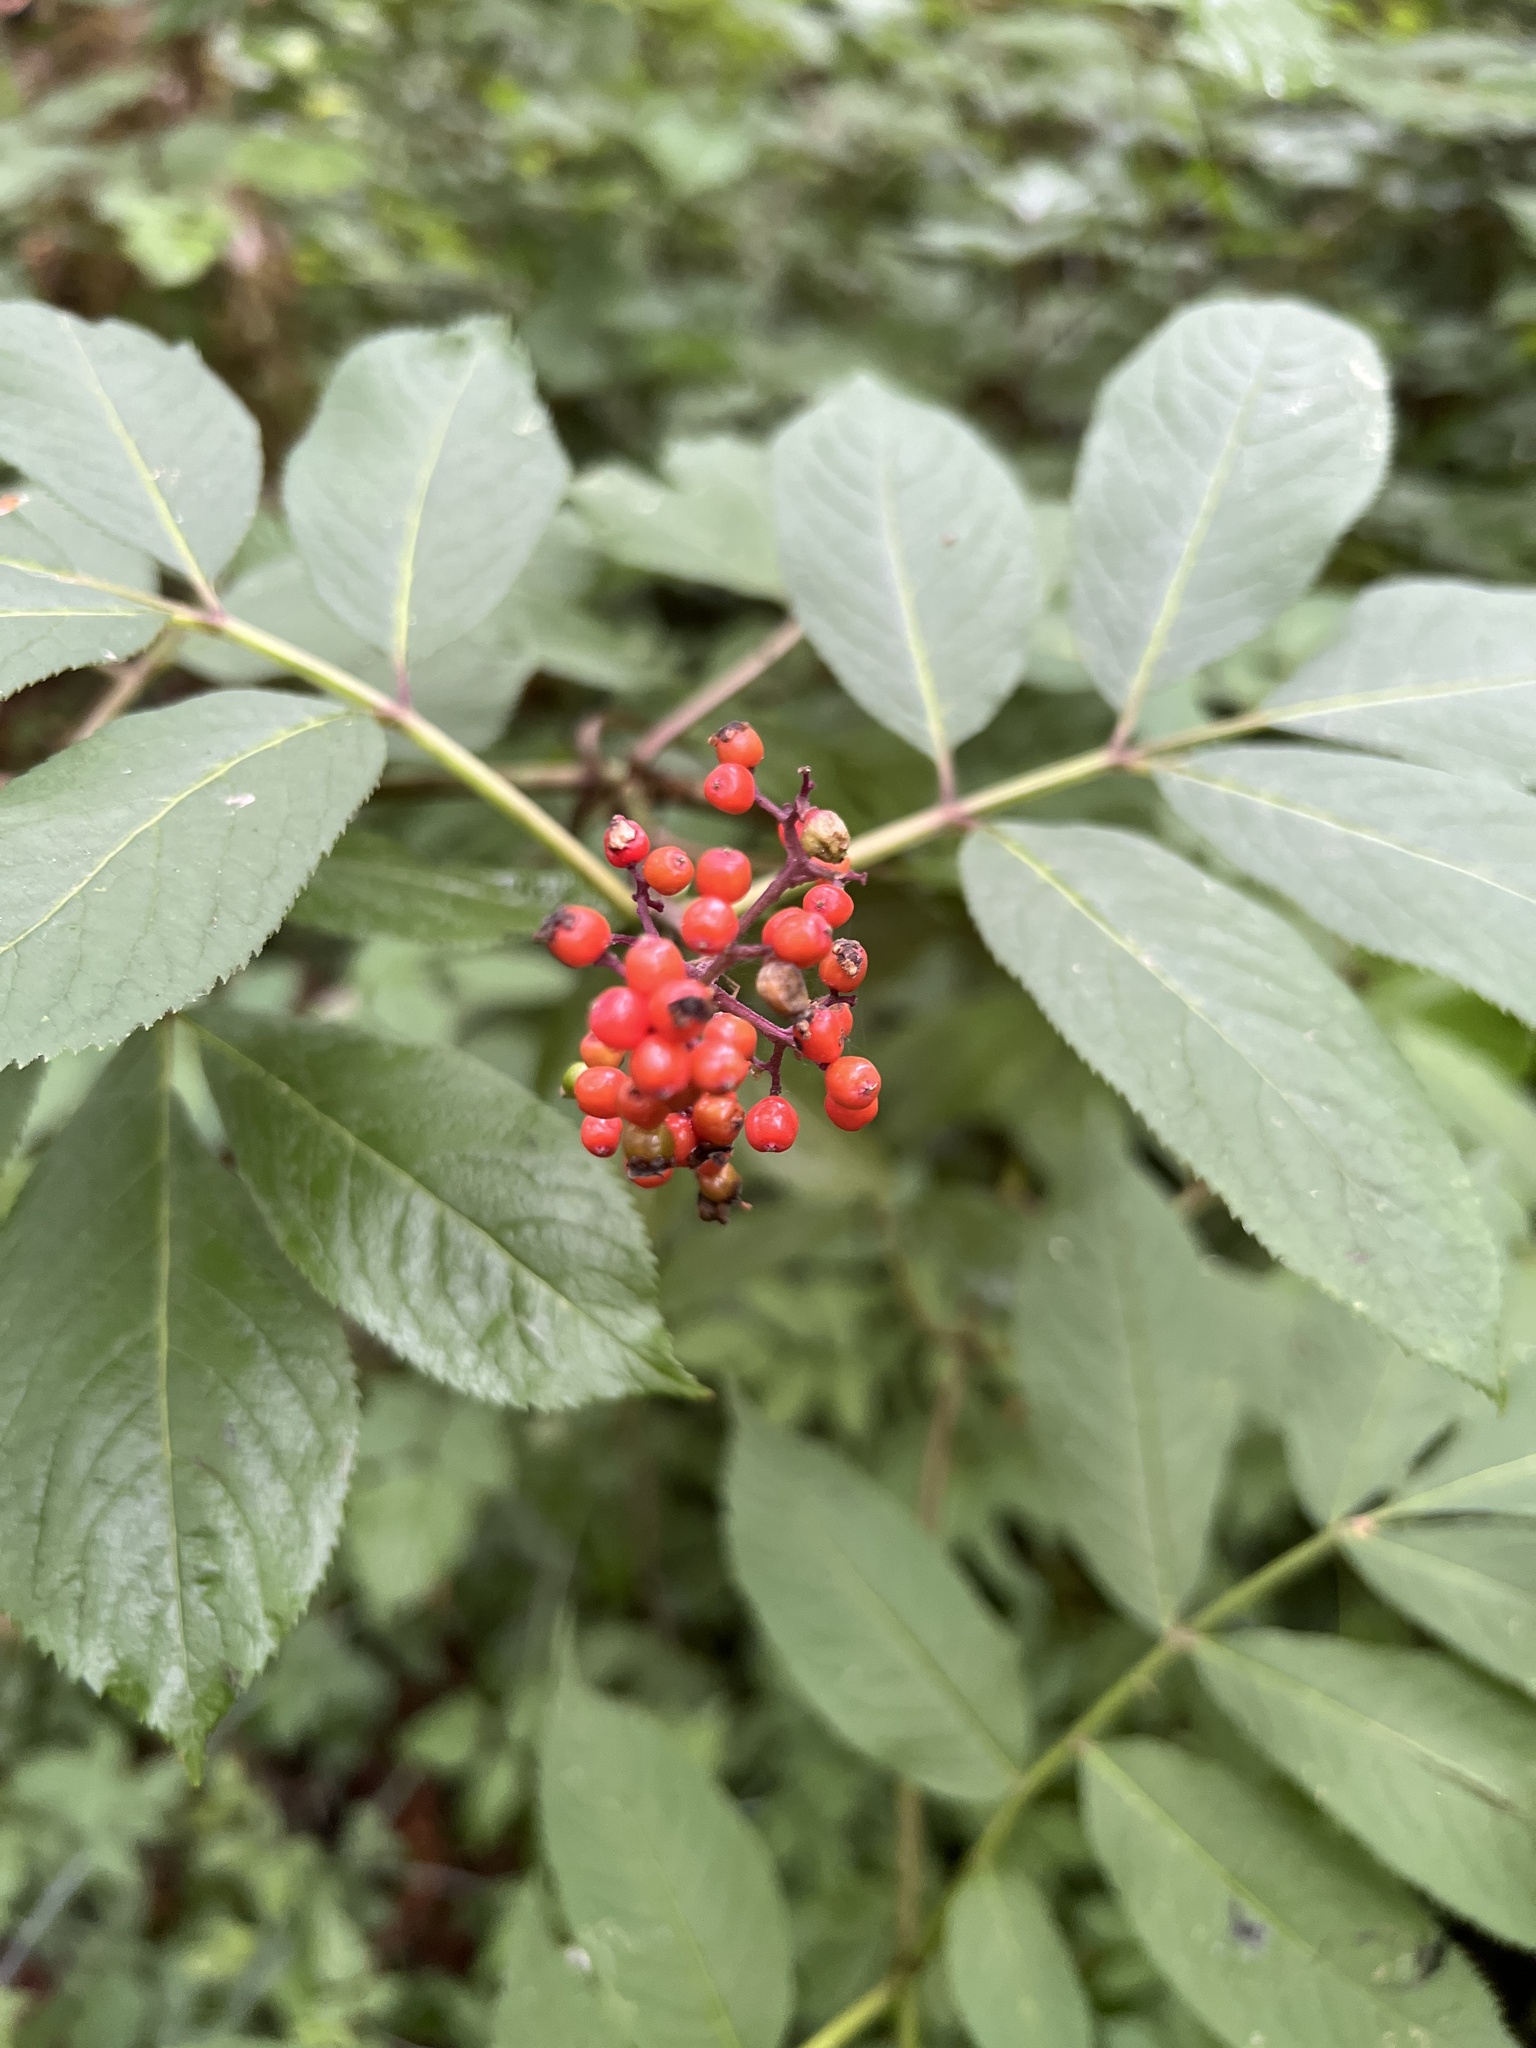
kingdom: Plantae
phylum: Tracheophyta
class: Magnoliopsida
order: Dipsacales
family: Viburnaceae
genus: Sambucus
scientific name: Sambucus racemosa
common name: Red-berried elder
